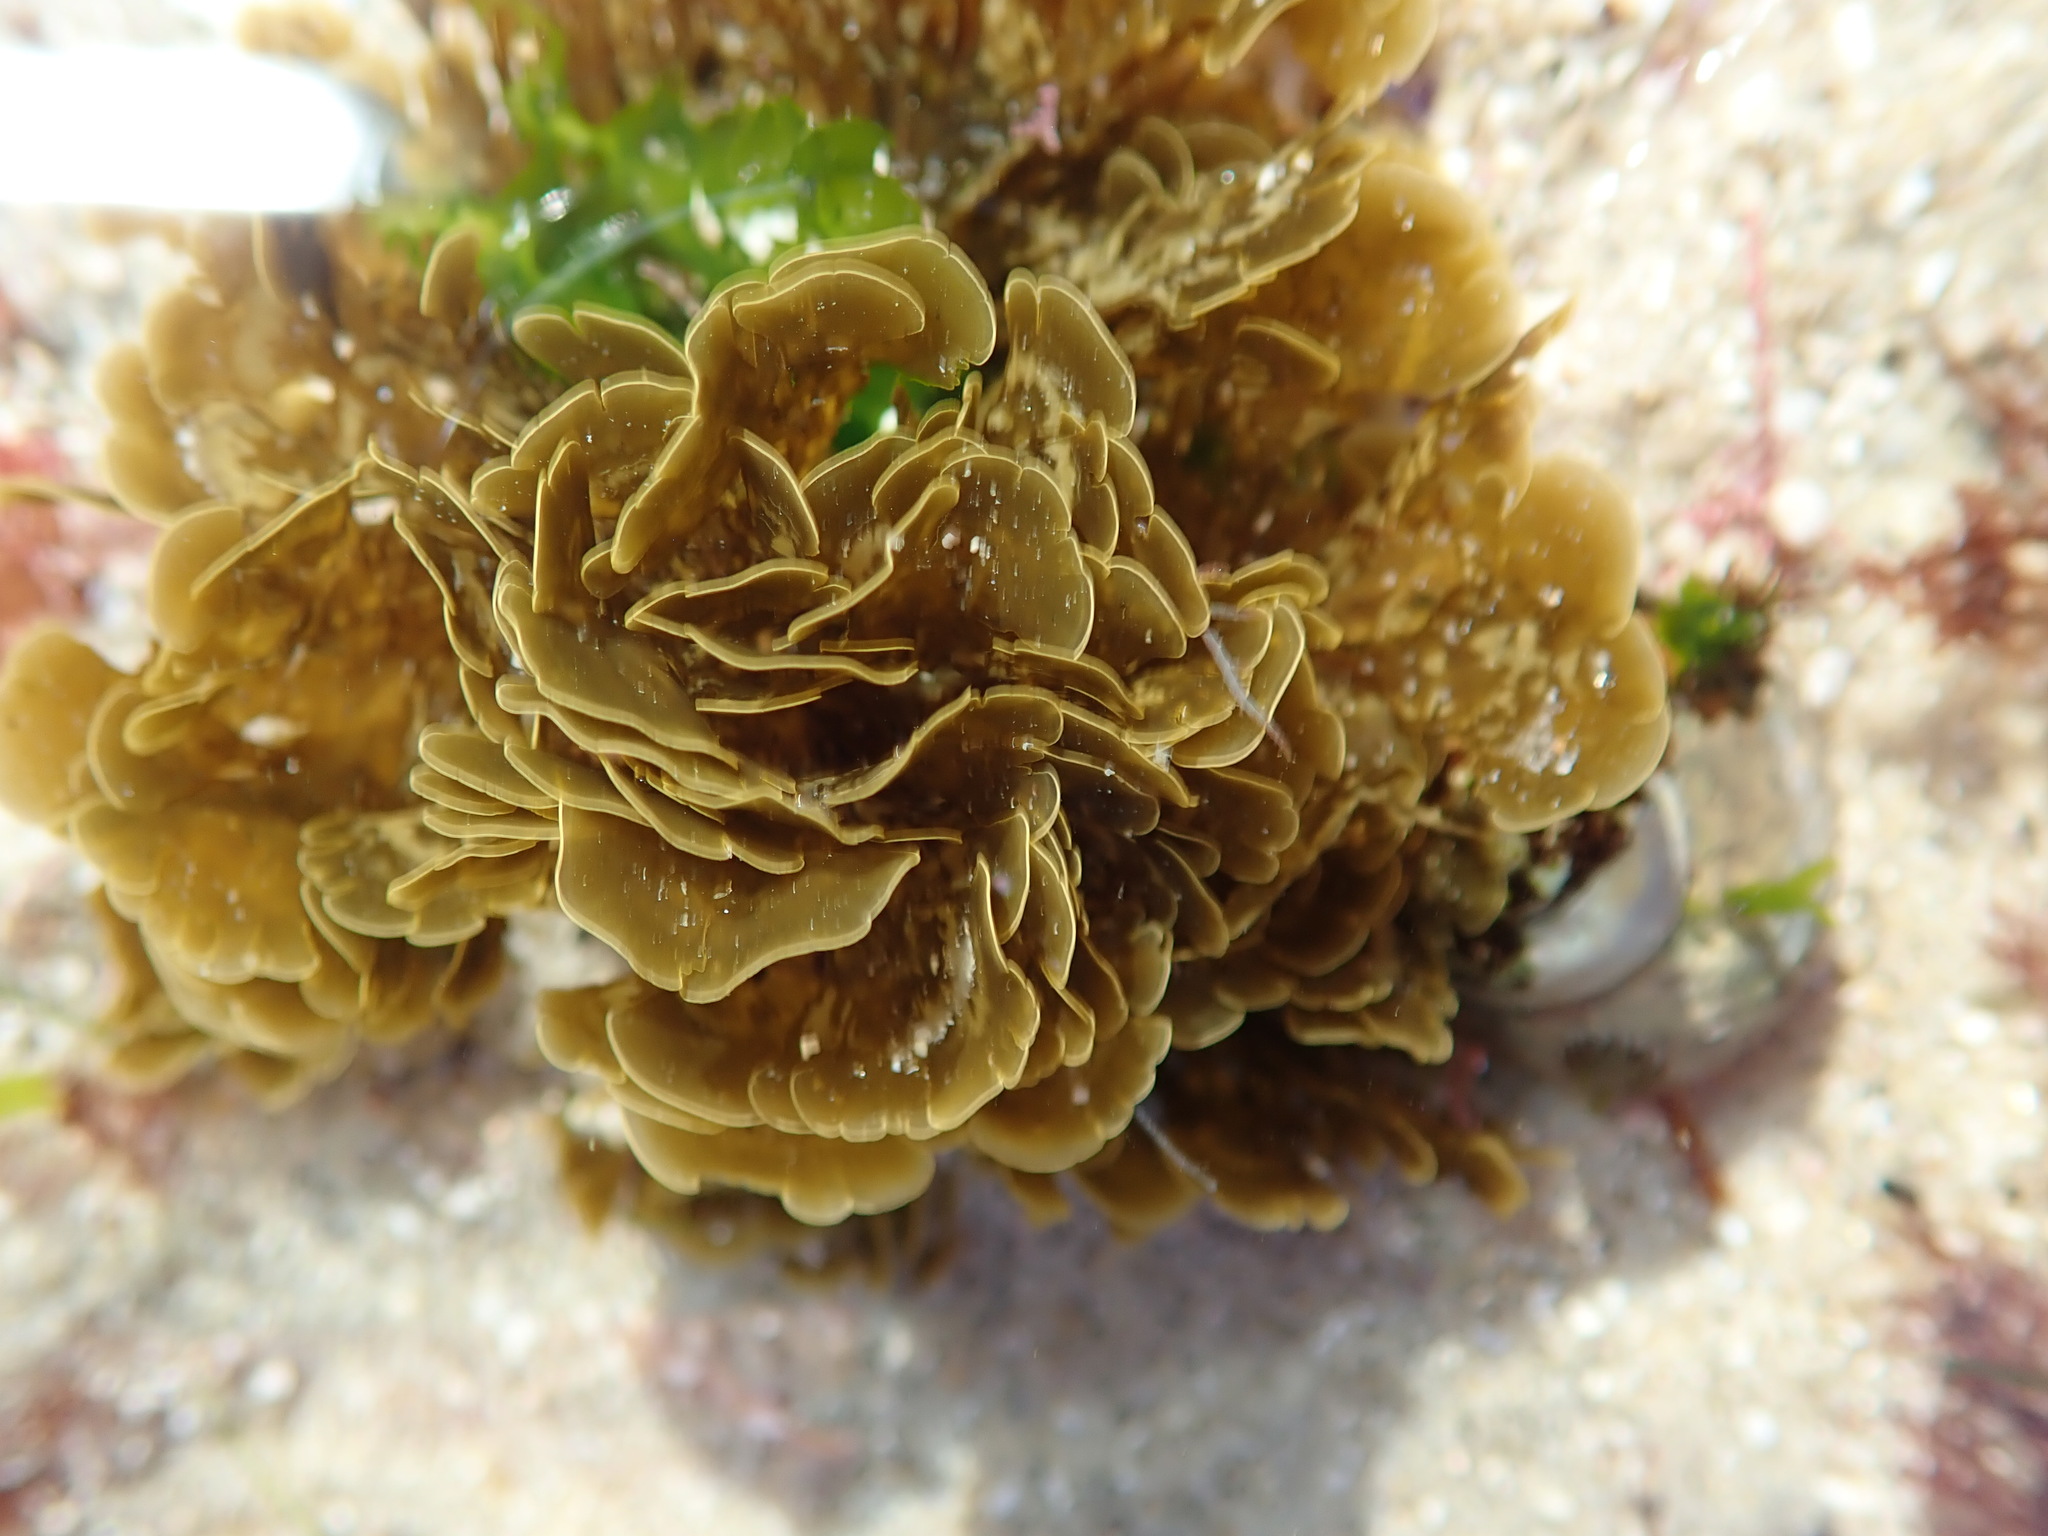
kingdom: Chromista
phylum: Ochrophyta
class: Phaeophyceae
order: Dictyotales
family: Dictyotaceae
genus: Zonaria
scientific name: Zonaria farlowii
